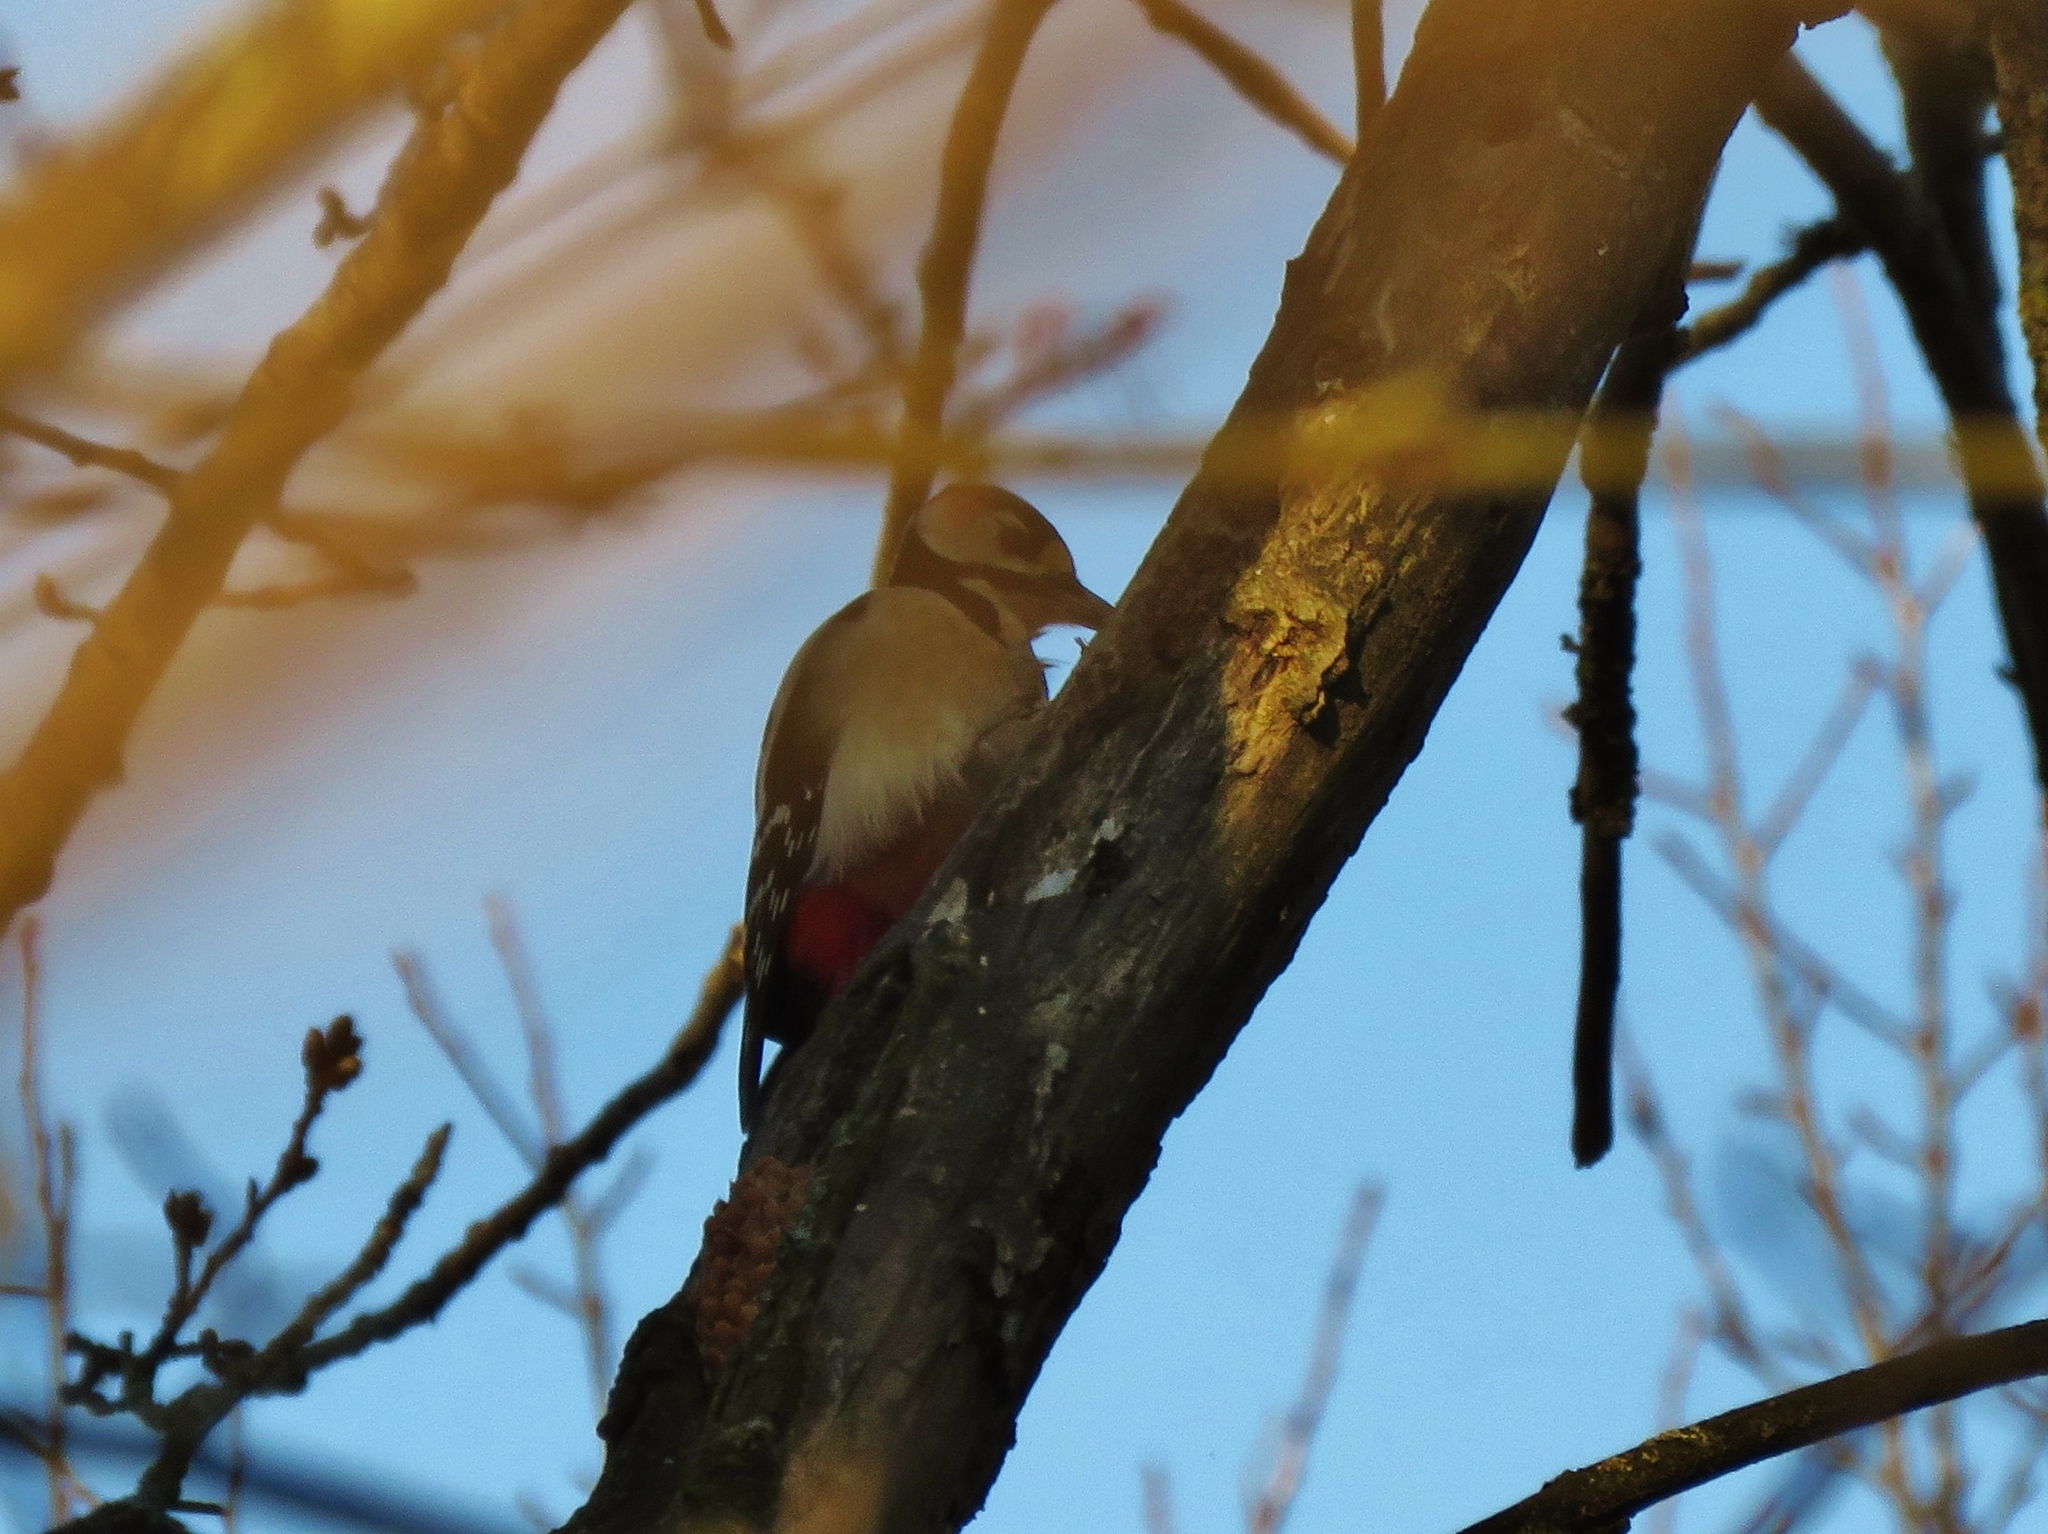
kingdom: Animalia
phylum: Chordata
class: Aves
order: Piciformes
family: Picidae
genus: Dendrocopos
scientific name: Dendrocopos major
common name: Great spotted woodpecker
